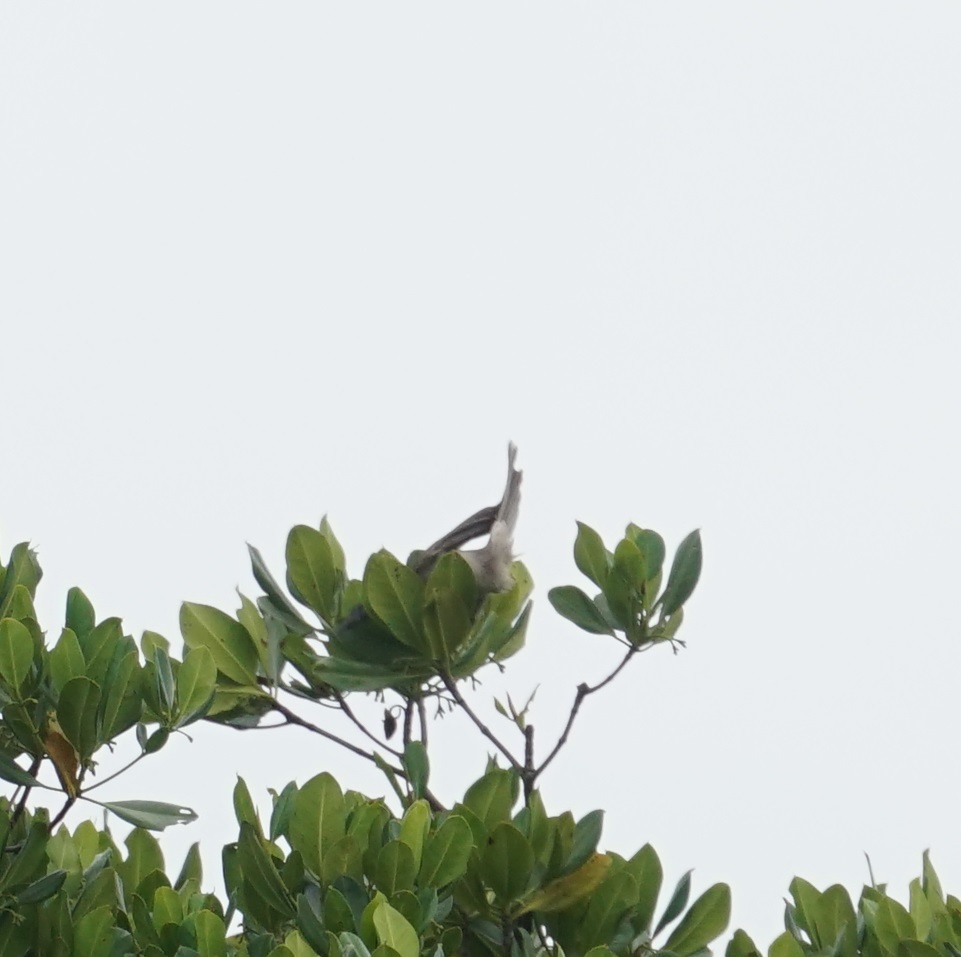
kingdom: Animalia
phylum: Chordata
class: Aves
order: Passeriformes
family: Meliphagidae
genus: Philemon
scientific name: Philemon yorki
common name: Hornbill friarbird
